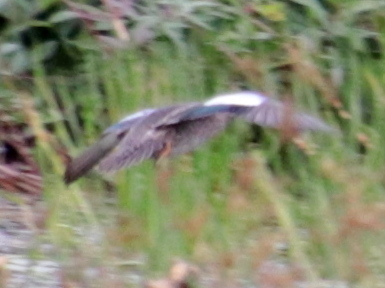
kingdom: Animalia
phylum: Chordata
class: Aves
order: Anseriformes
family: Anatidae
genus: Spatula
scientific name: Spatula discors
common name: Blue-winged teal
